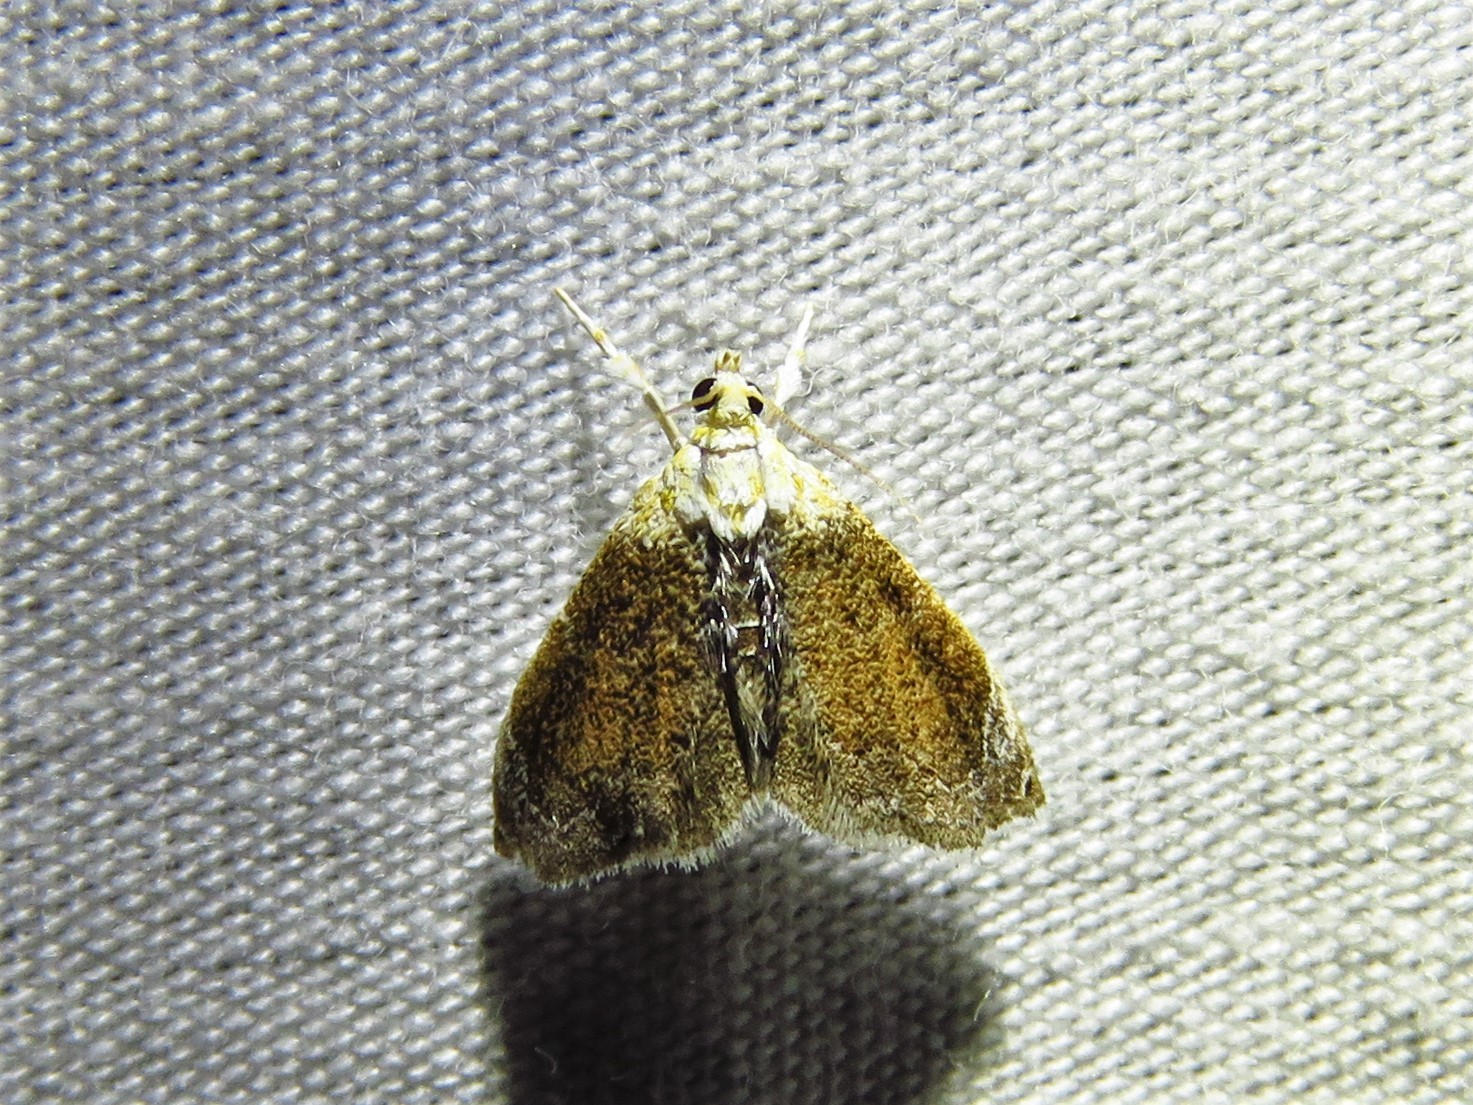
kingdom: Animalia
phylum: Arthropoda
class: Insecta
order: Lepidoptera
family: Crambidae
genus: Lipocosma
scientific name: Lipocosma polingi
